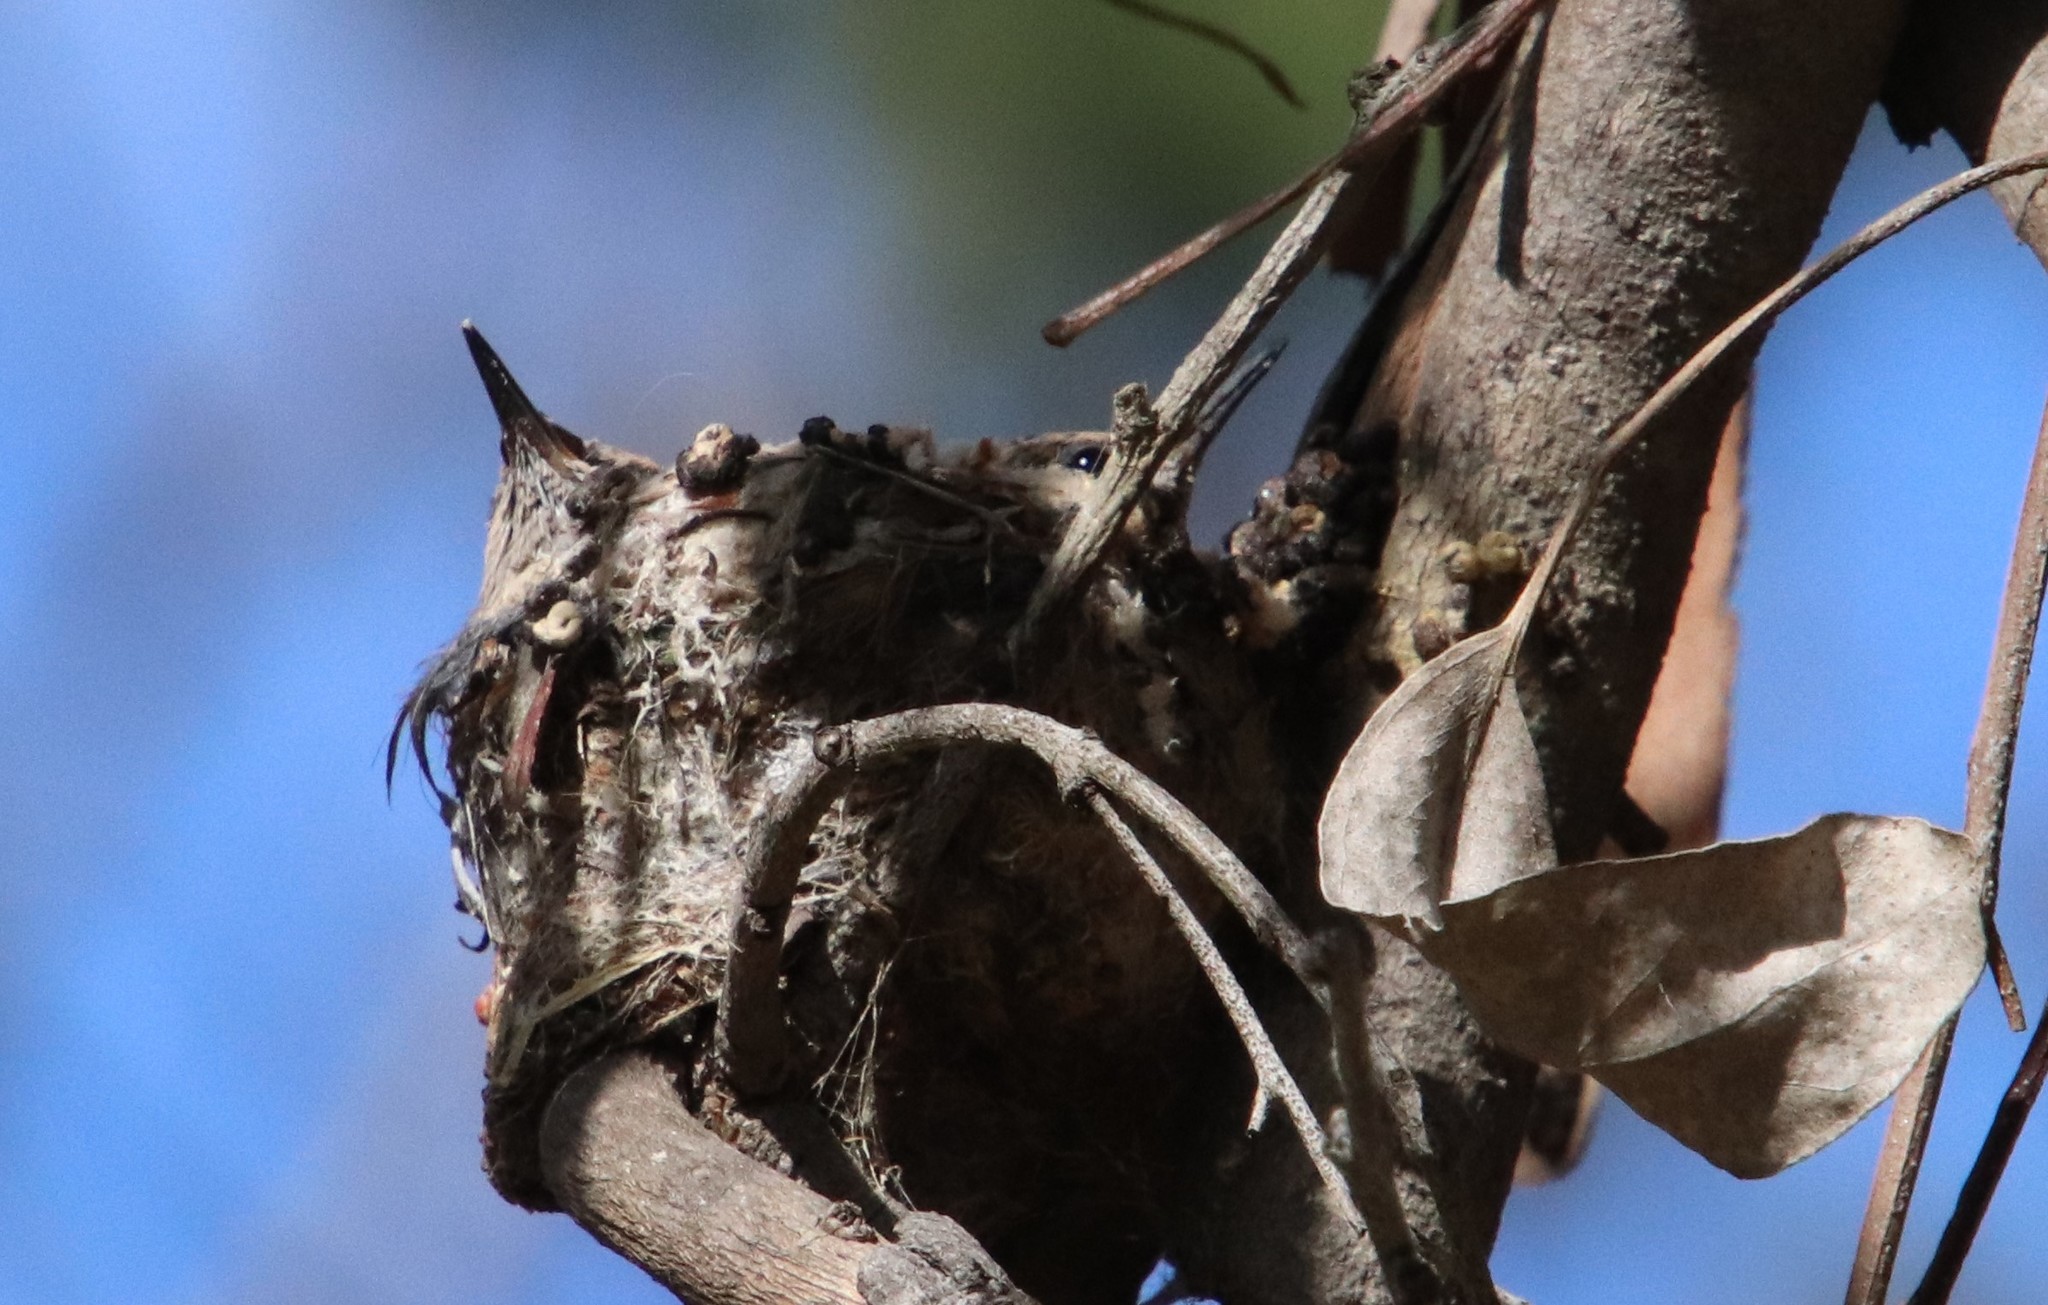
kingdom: Animalia
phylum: Chordata
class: Aves
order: Apodiformes
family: Trochilidae
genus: Calypte
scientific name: Calypte anna
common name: Anna's hummingbird
